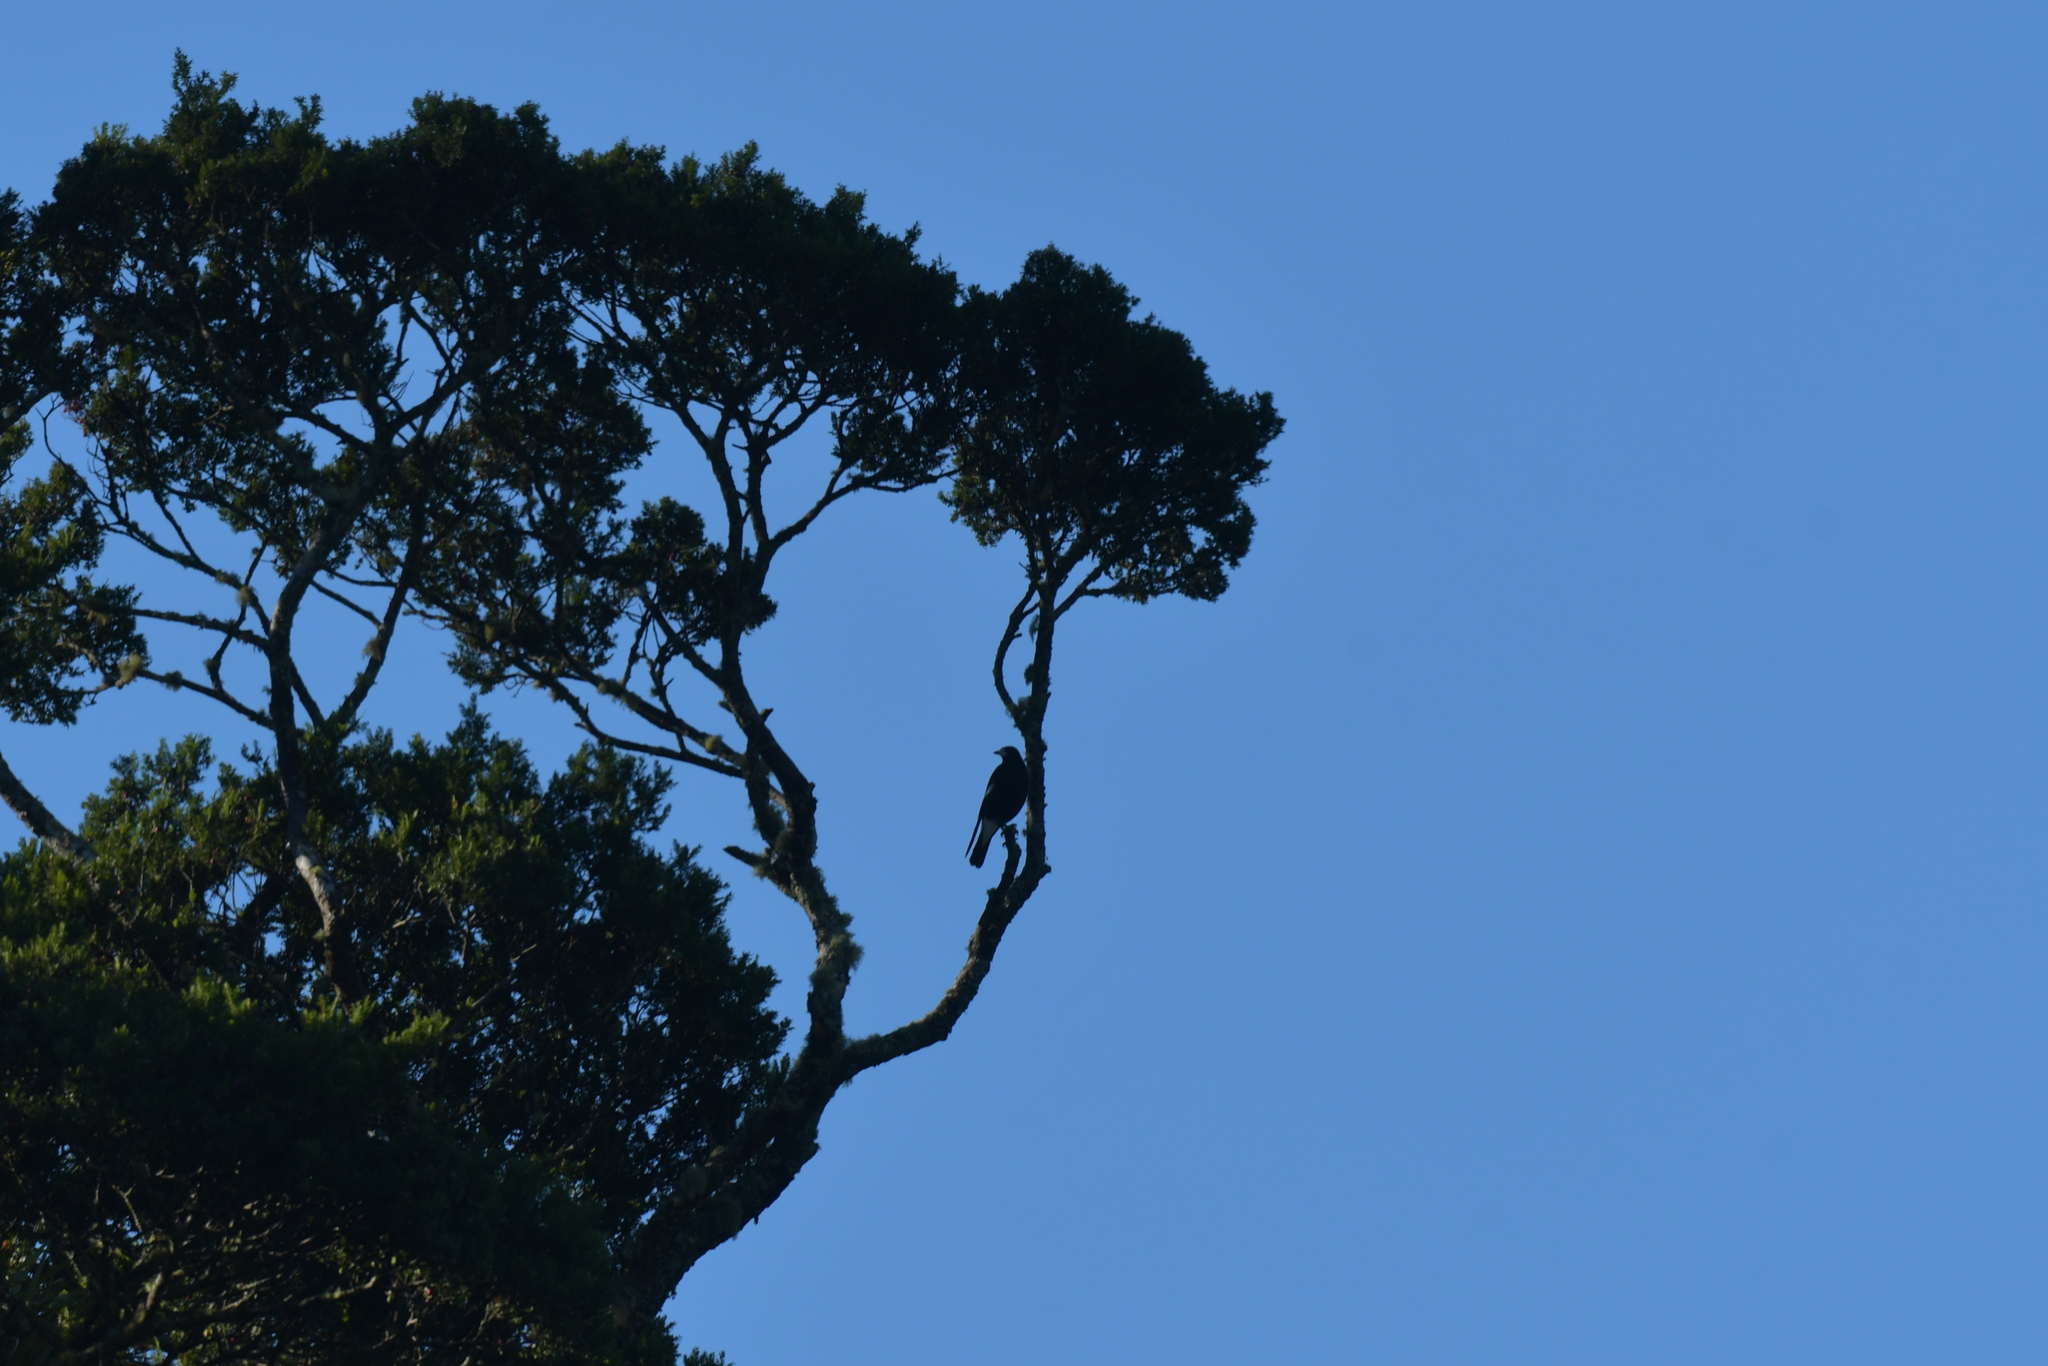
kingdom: Animalia
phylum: Chordata
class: Aves
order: Passeriformes
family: Cracticidae
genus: Gymnorhina
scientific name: Gymnorhina tibicen
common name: Australian magpie
